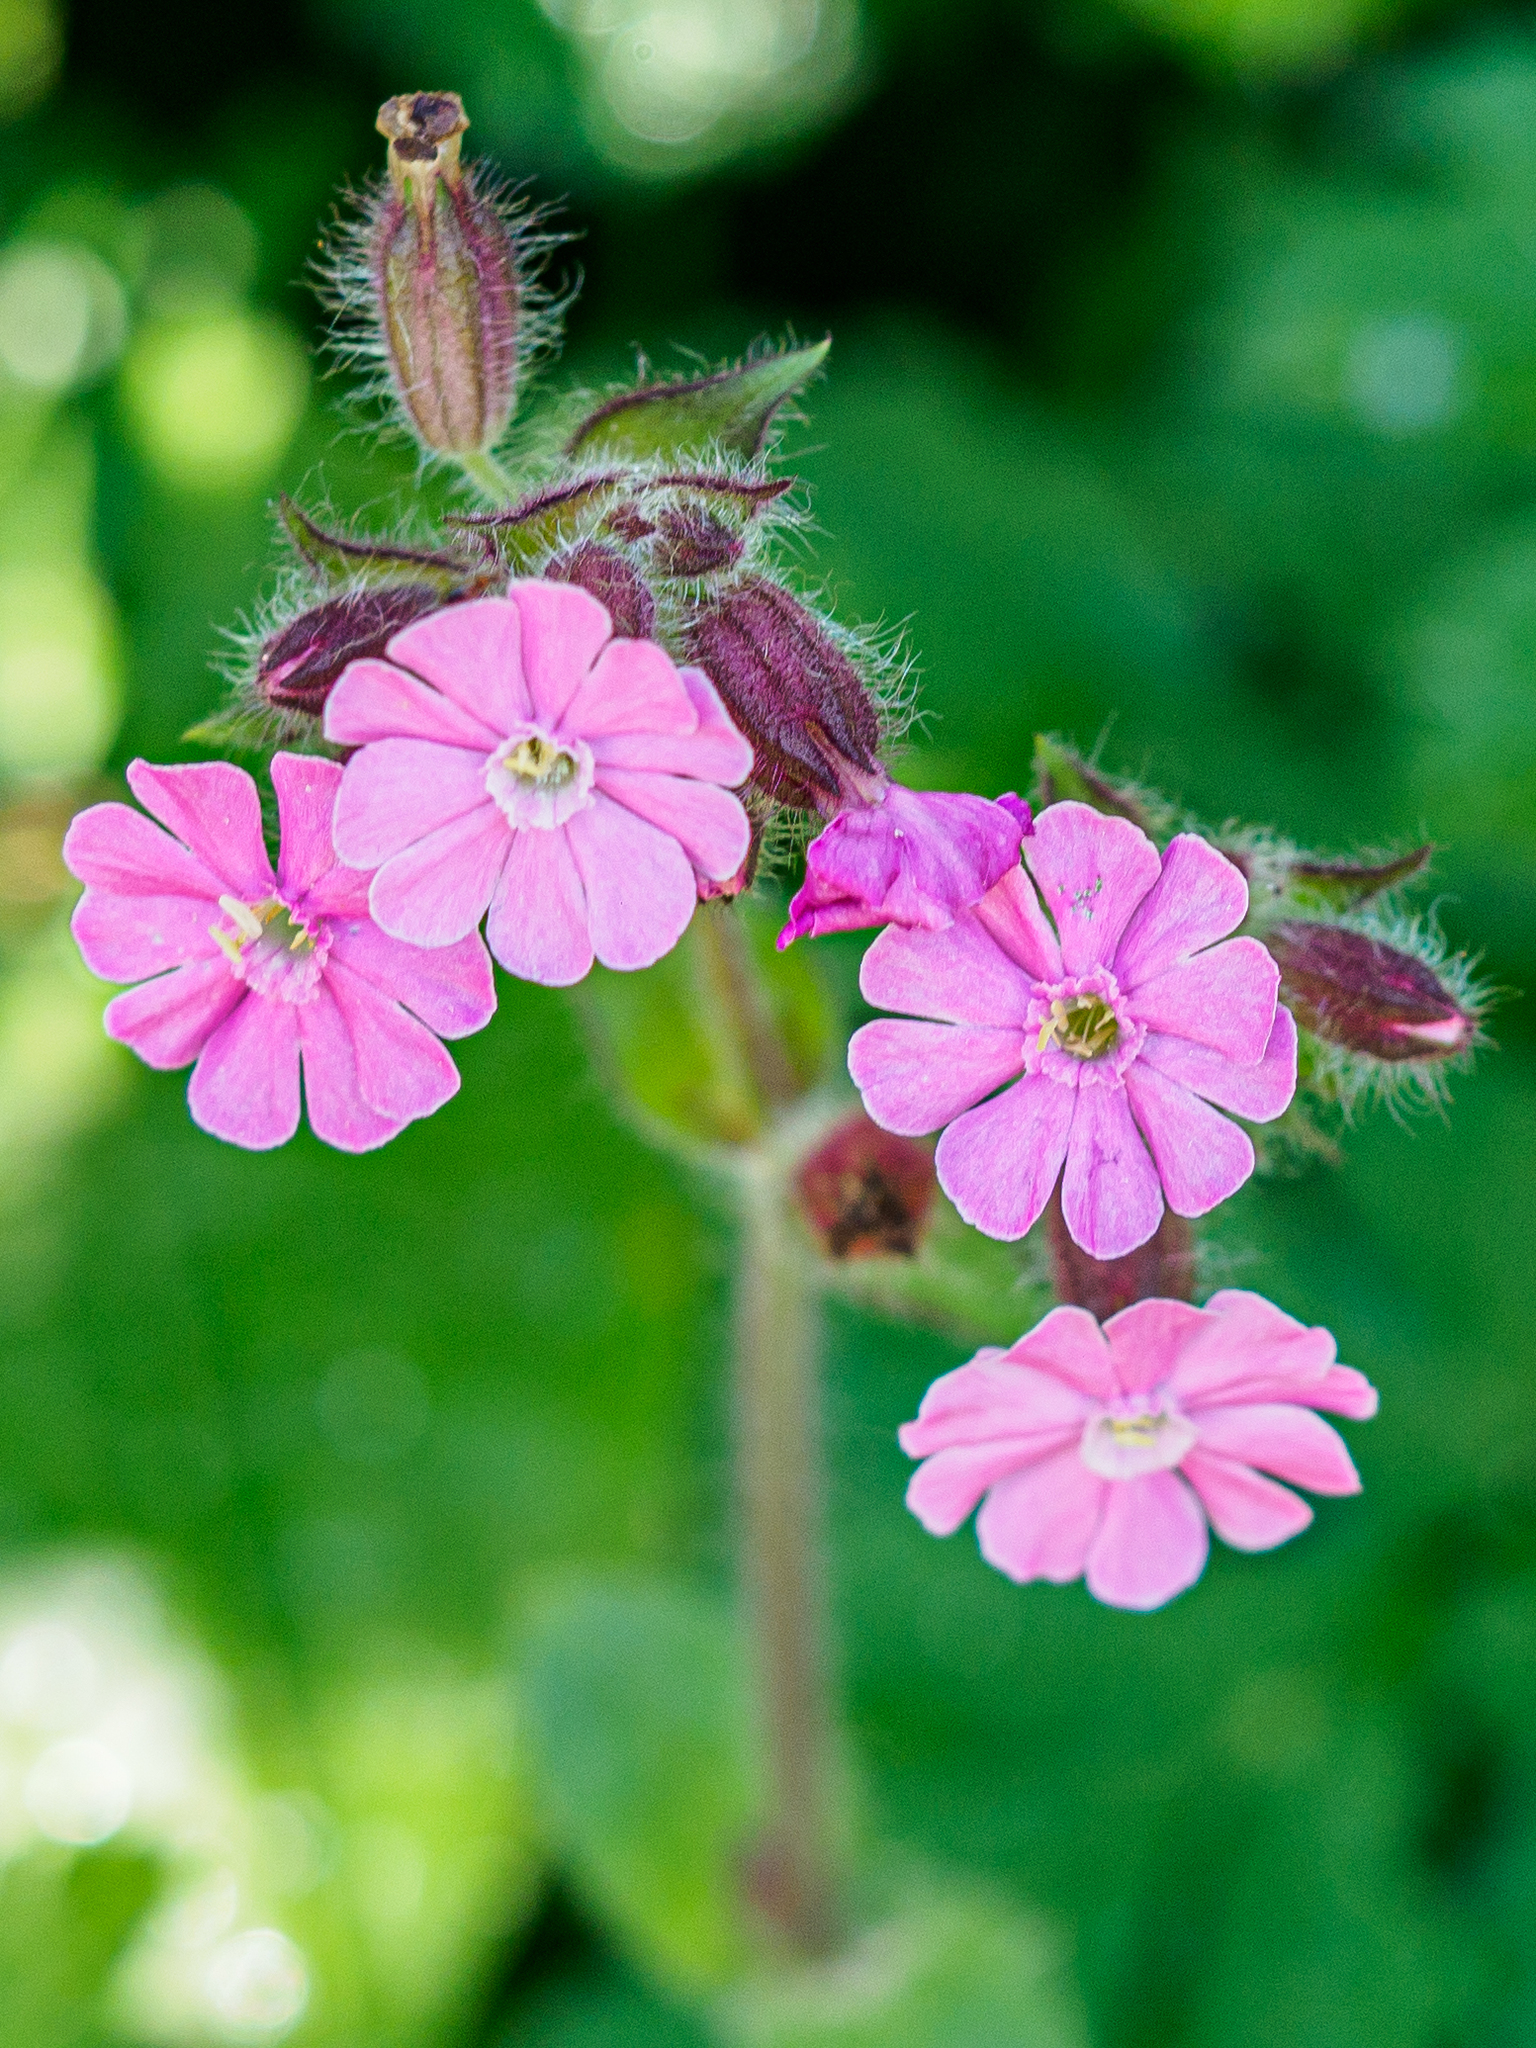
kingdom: Plantae
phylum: Tracheophyta
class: Magnoliopsida
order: Caryophyllales
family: Caryophyllaceae
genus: Silene
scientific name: Silene dioica
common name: Red campion
